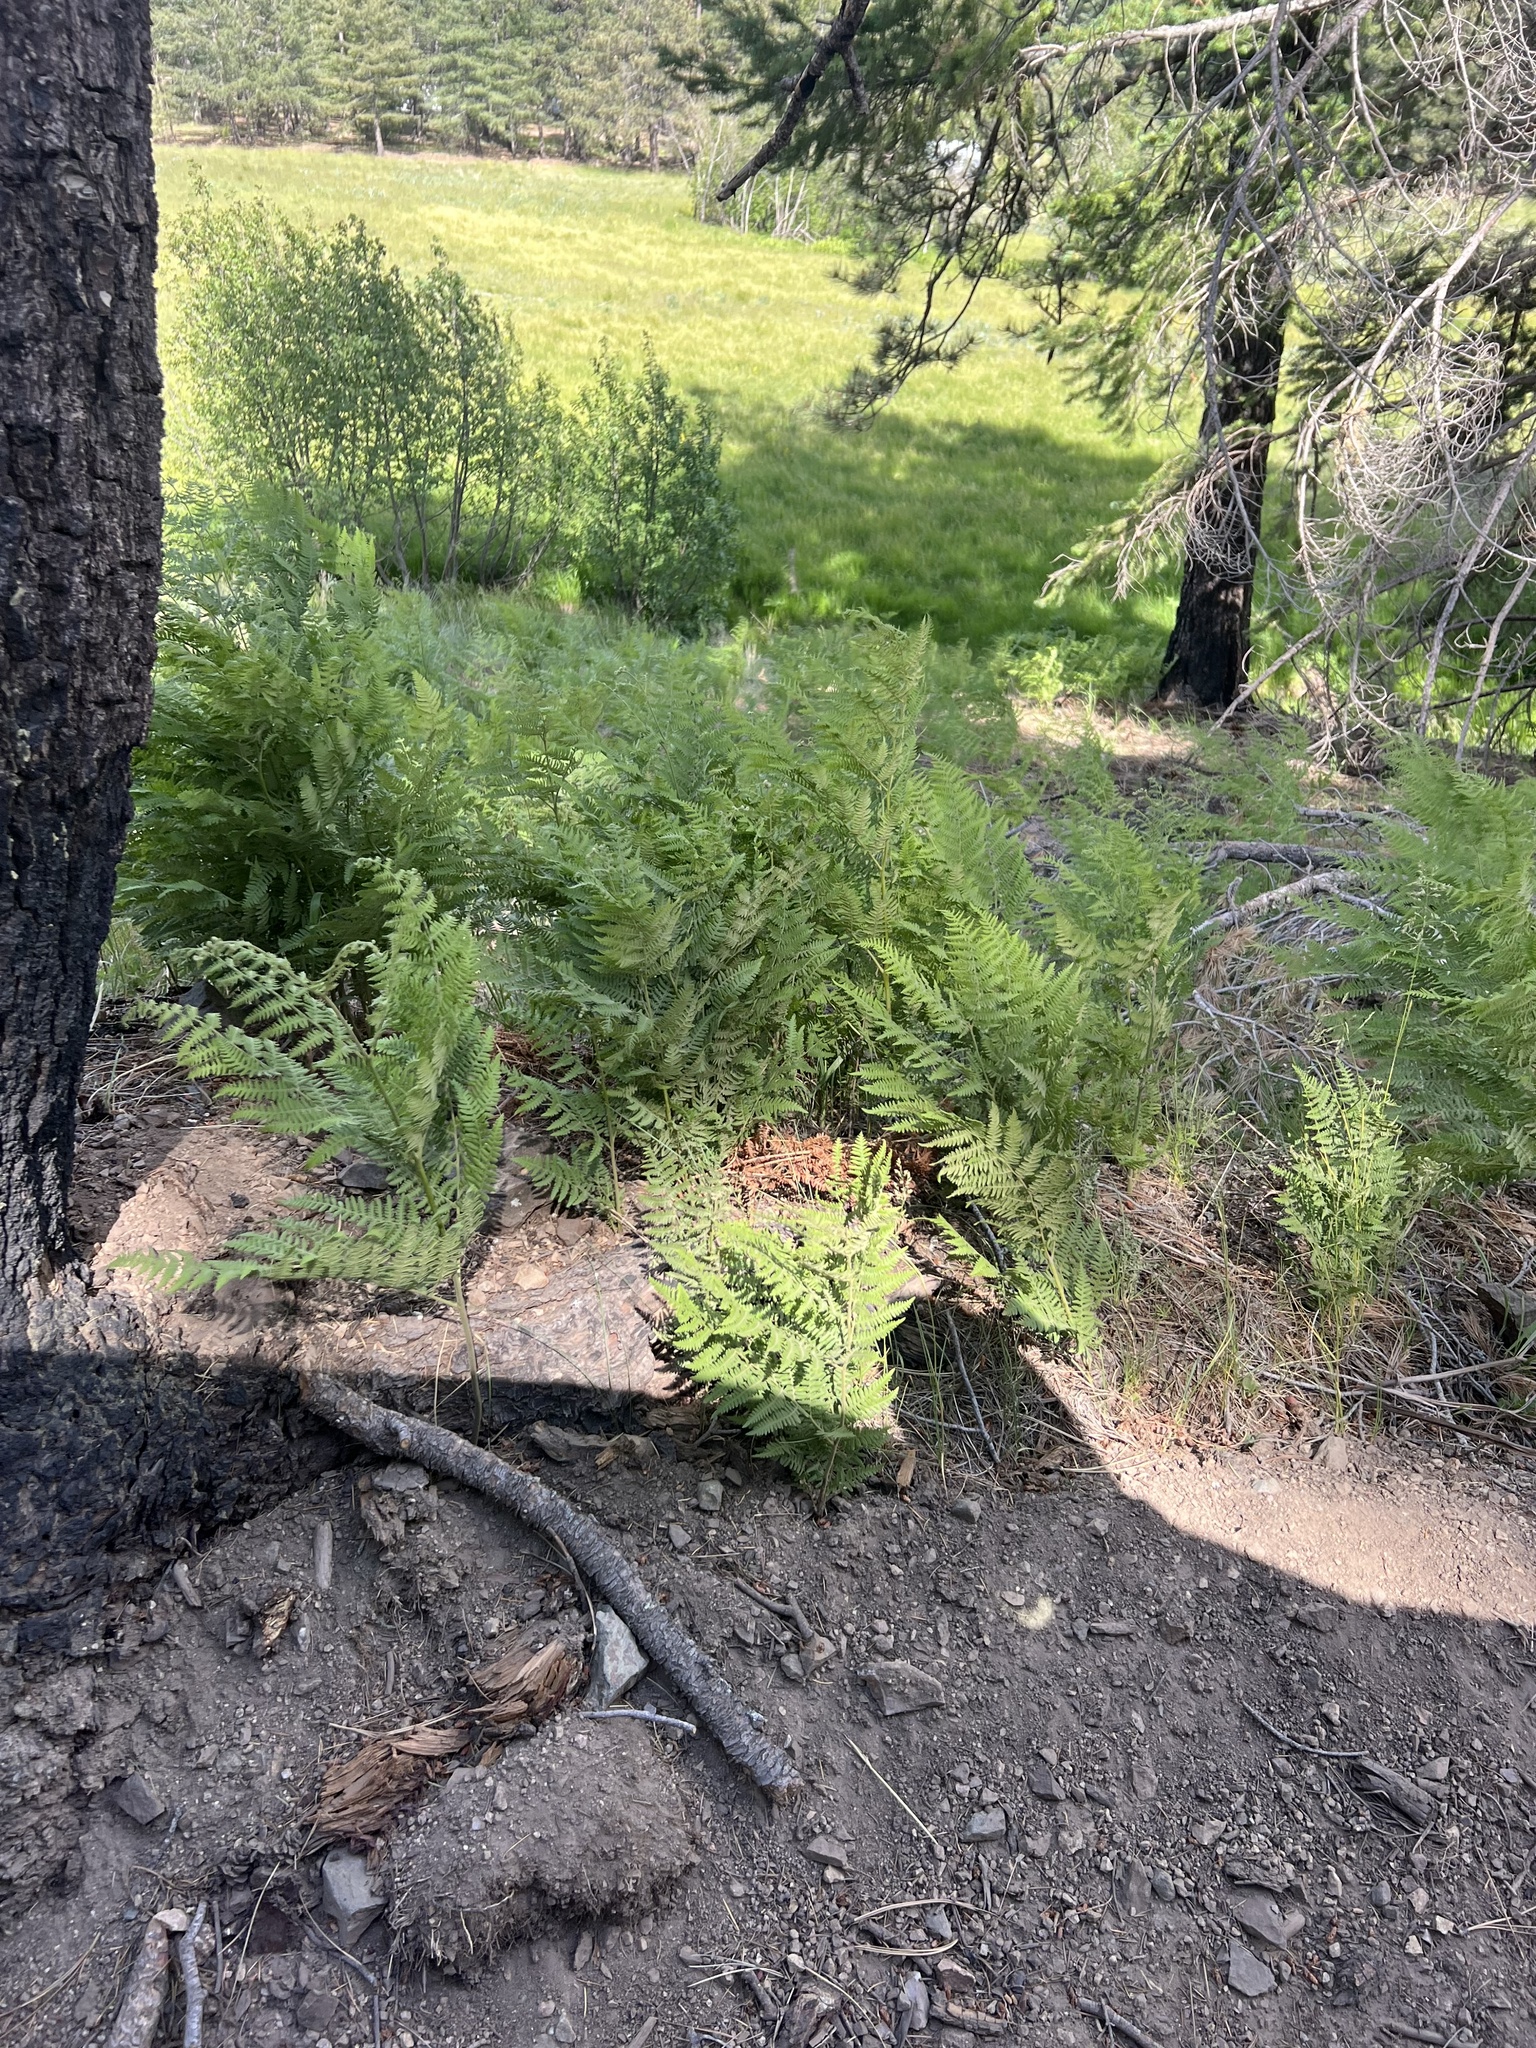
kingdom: Plantae
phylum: Tracheophyta
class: Polypodiopsida
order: Polypodiales
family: Dennstaedtiaceae
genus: Pteridium
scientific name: Pteridium aquilinum
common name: Bracken
